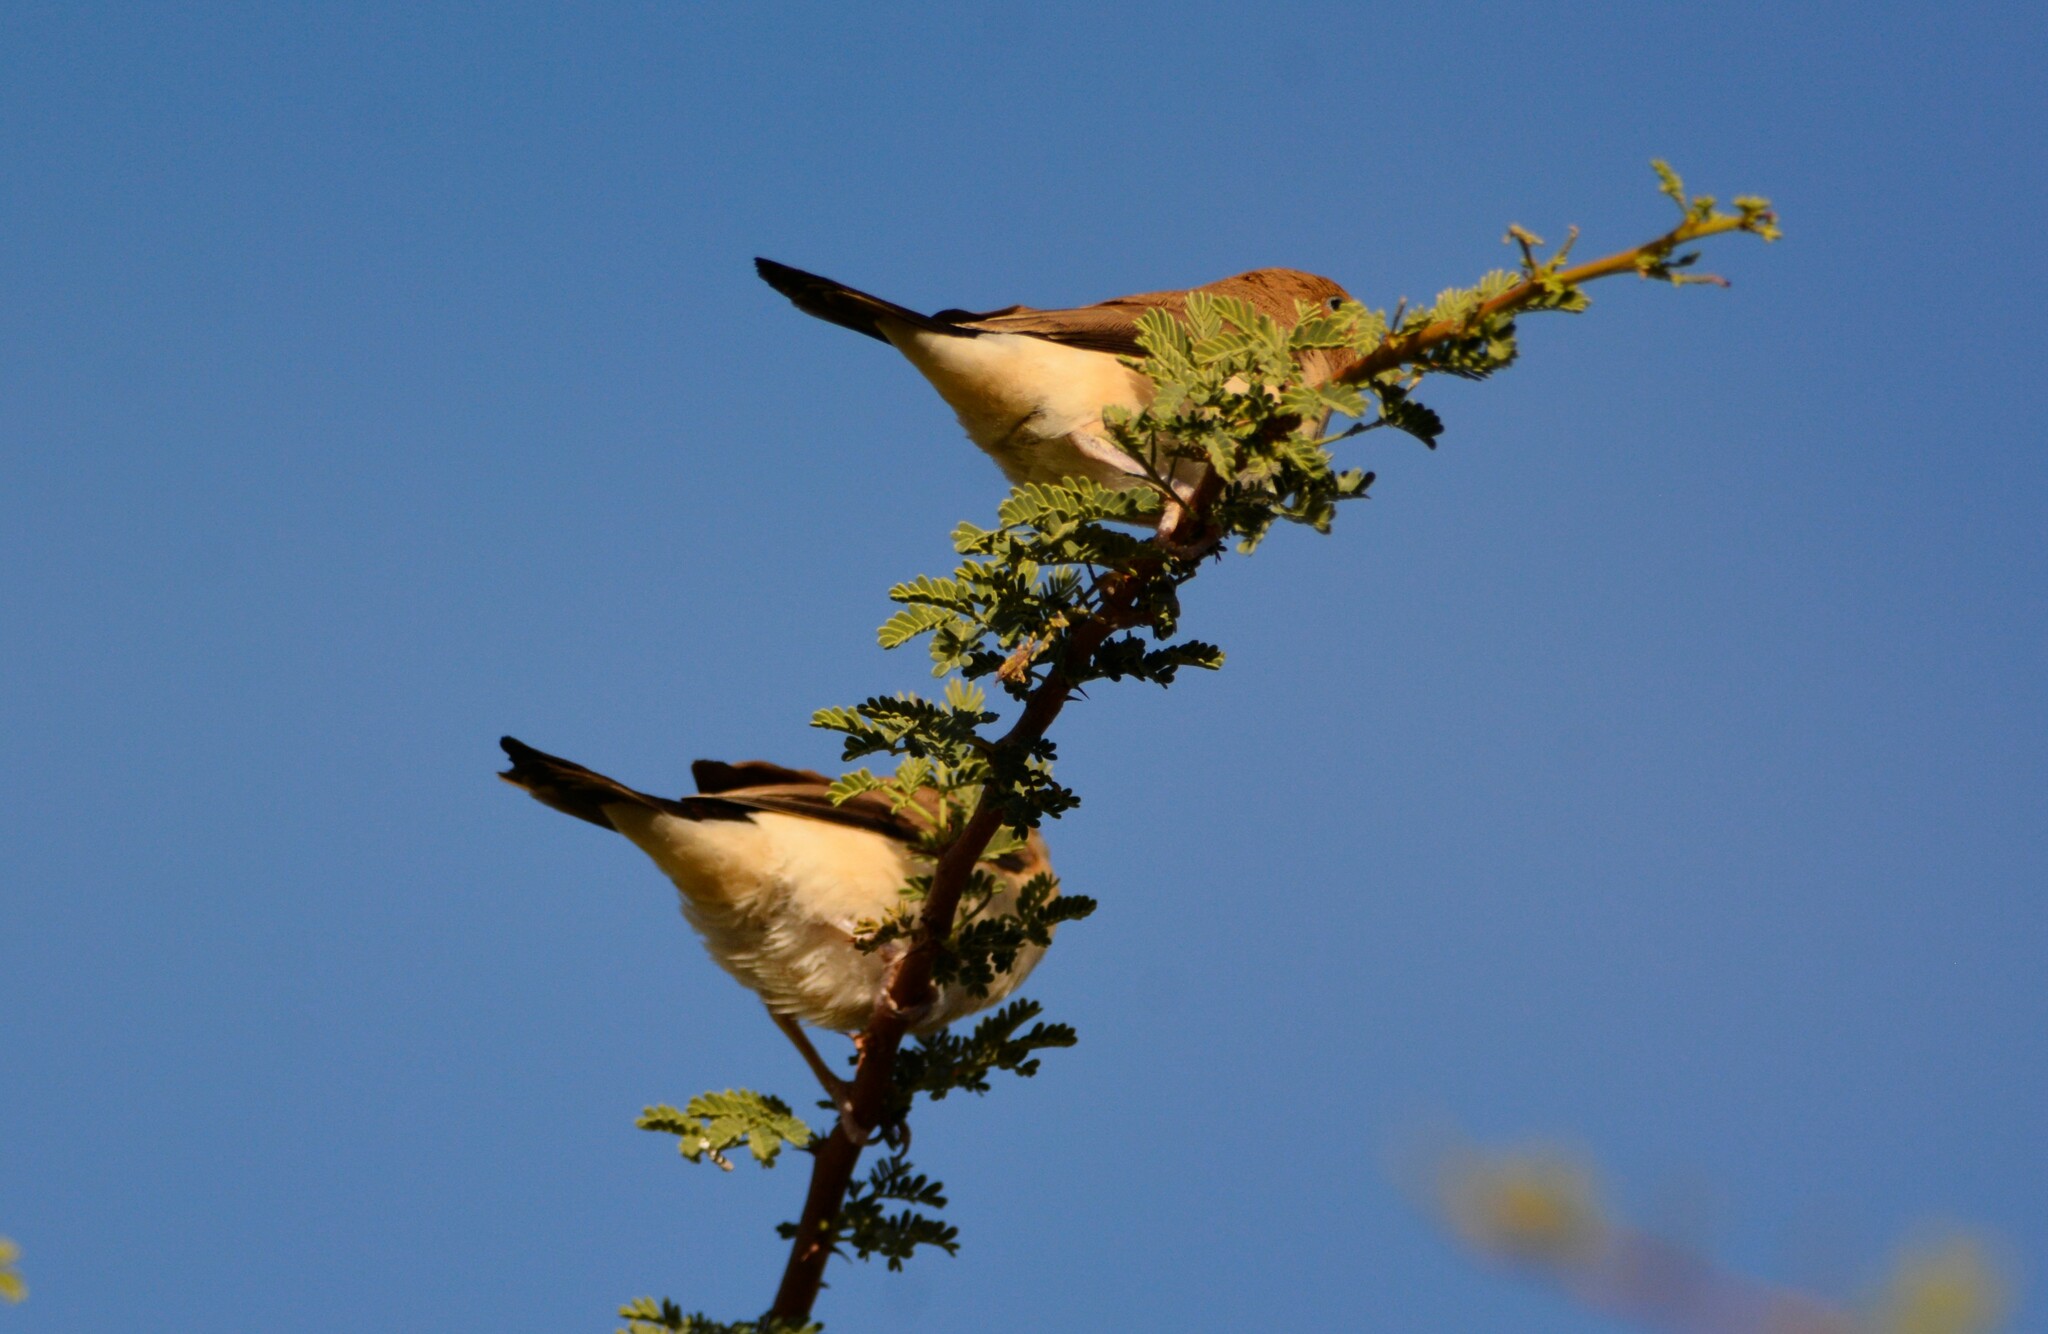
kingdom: Animalia
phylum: Chordata
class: Aves
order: Passeriformes
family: Estrildidae
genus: Euodice
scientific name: Euodice cantans
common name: African silverbill
